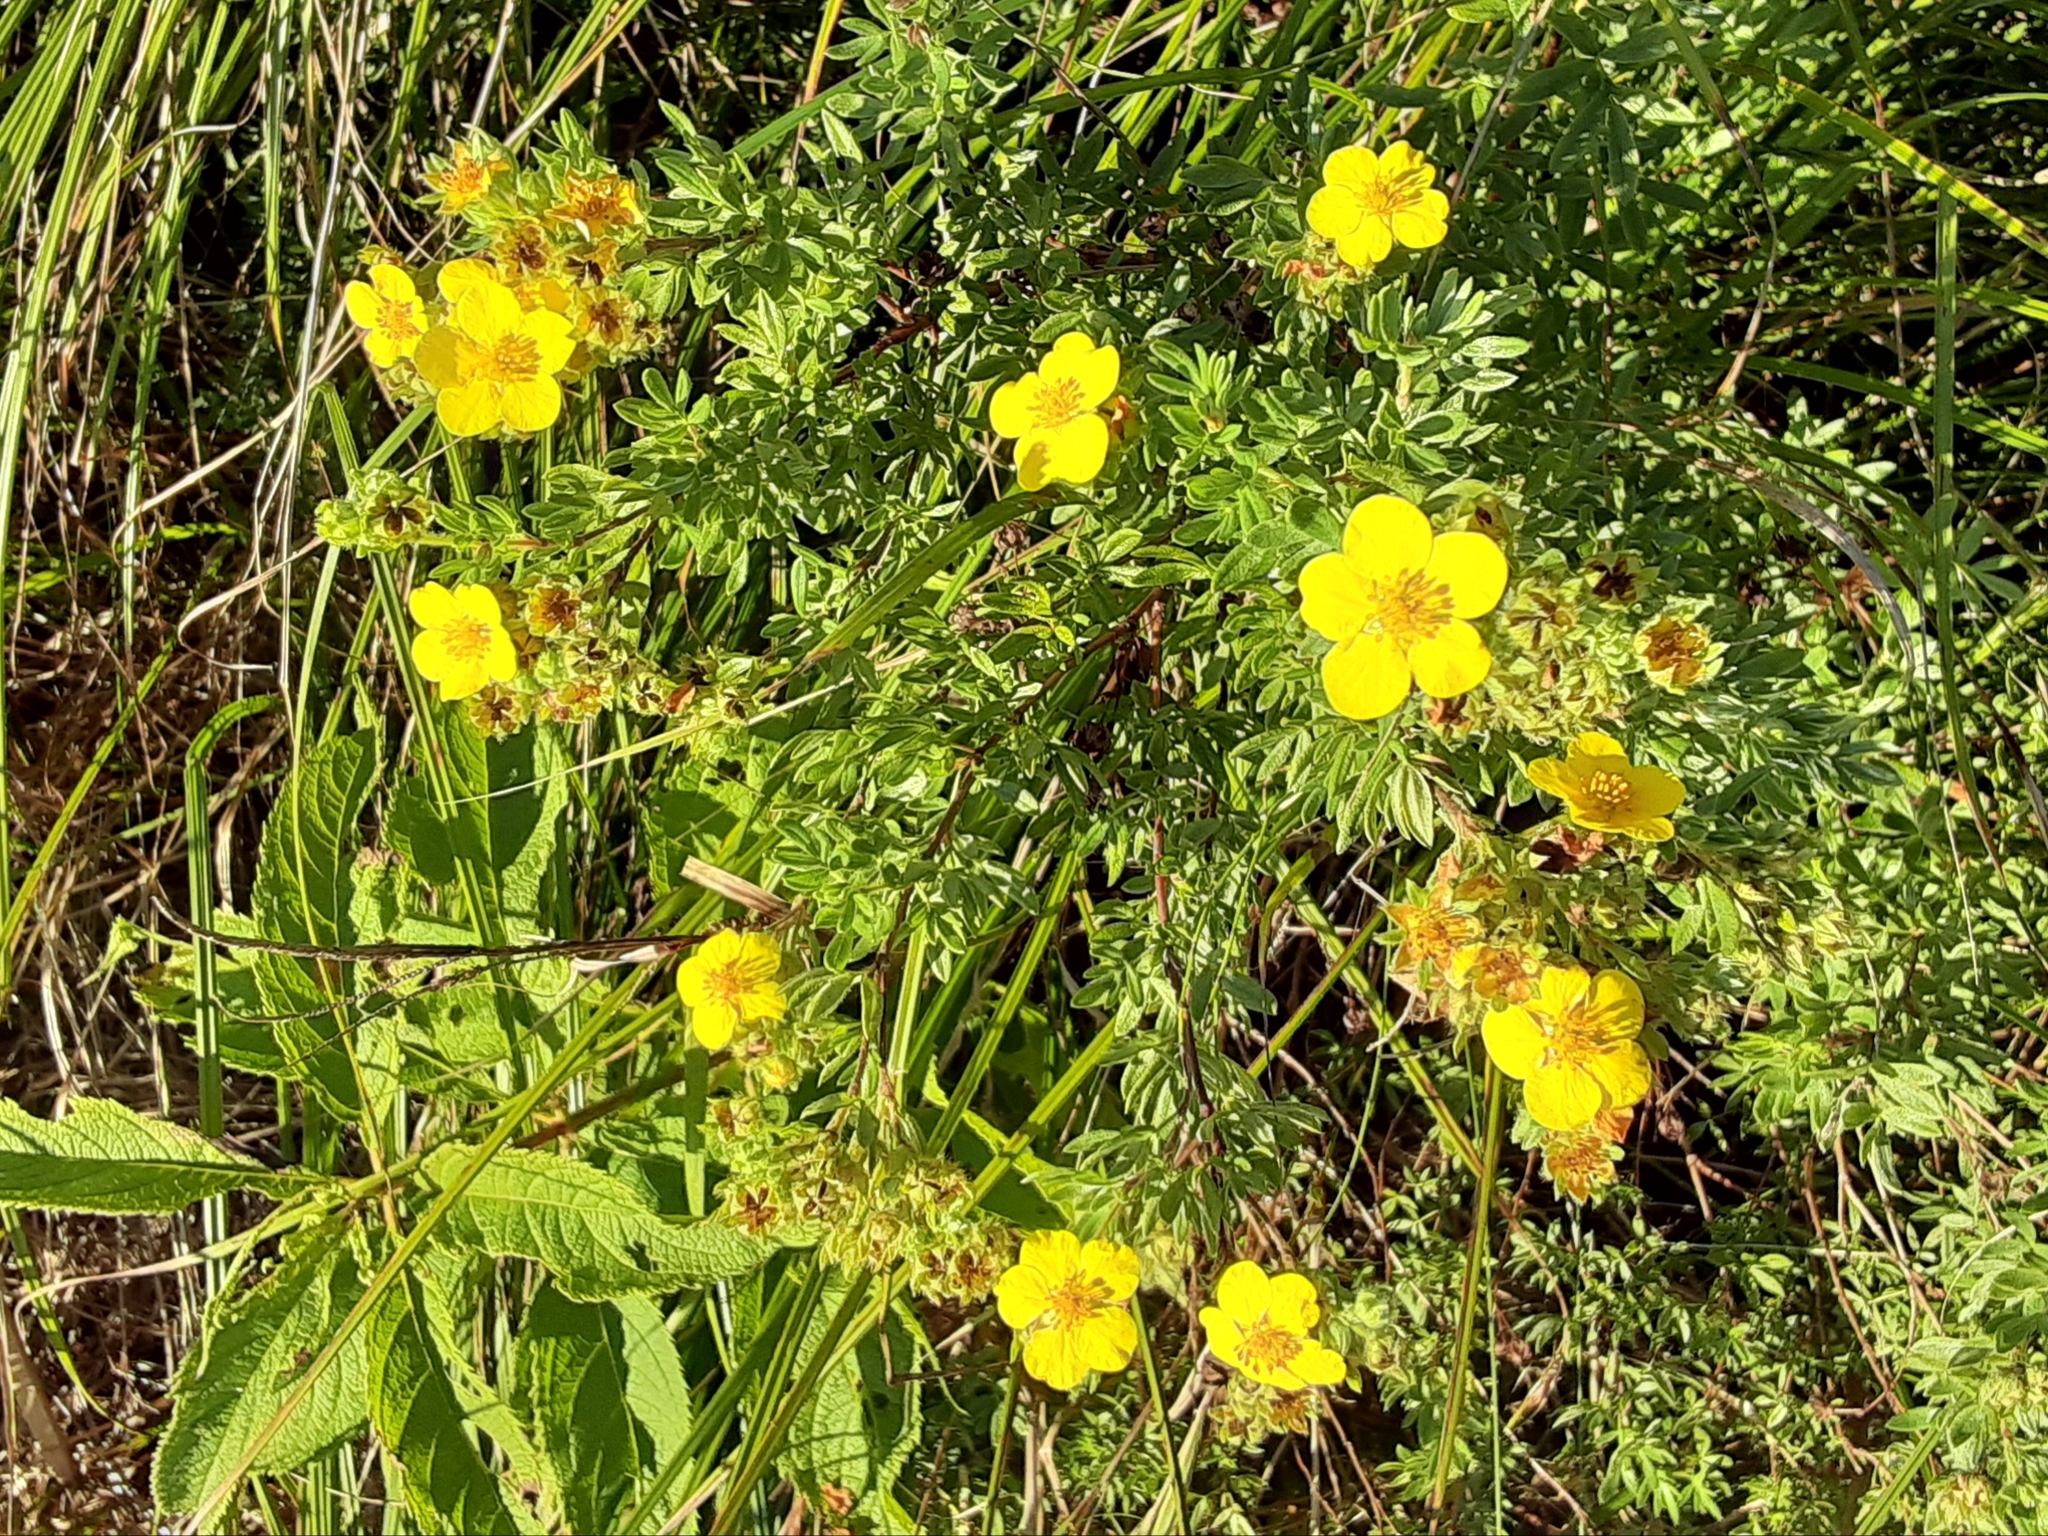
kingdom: Plantae
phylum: Tracheophyta
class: Magnoliopsida
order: Rosales
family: Rosaceae
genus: Dasiphora
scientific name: Dasiphora fruticosa
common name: Shrubby cinquefoil
